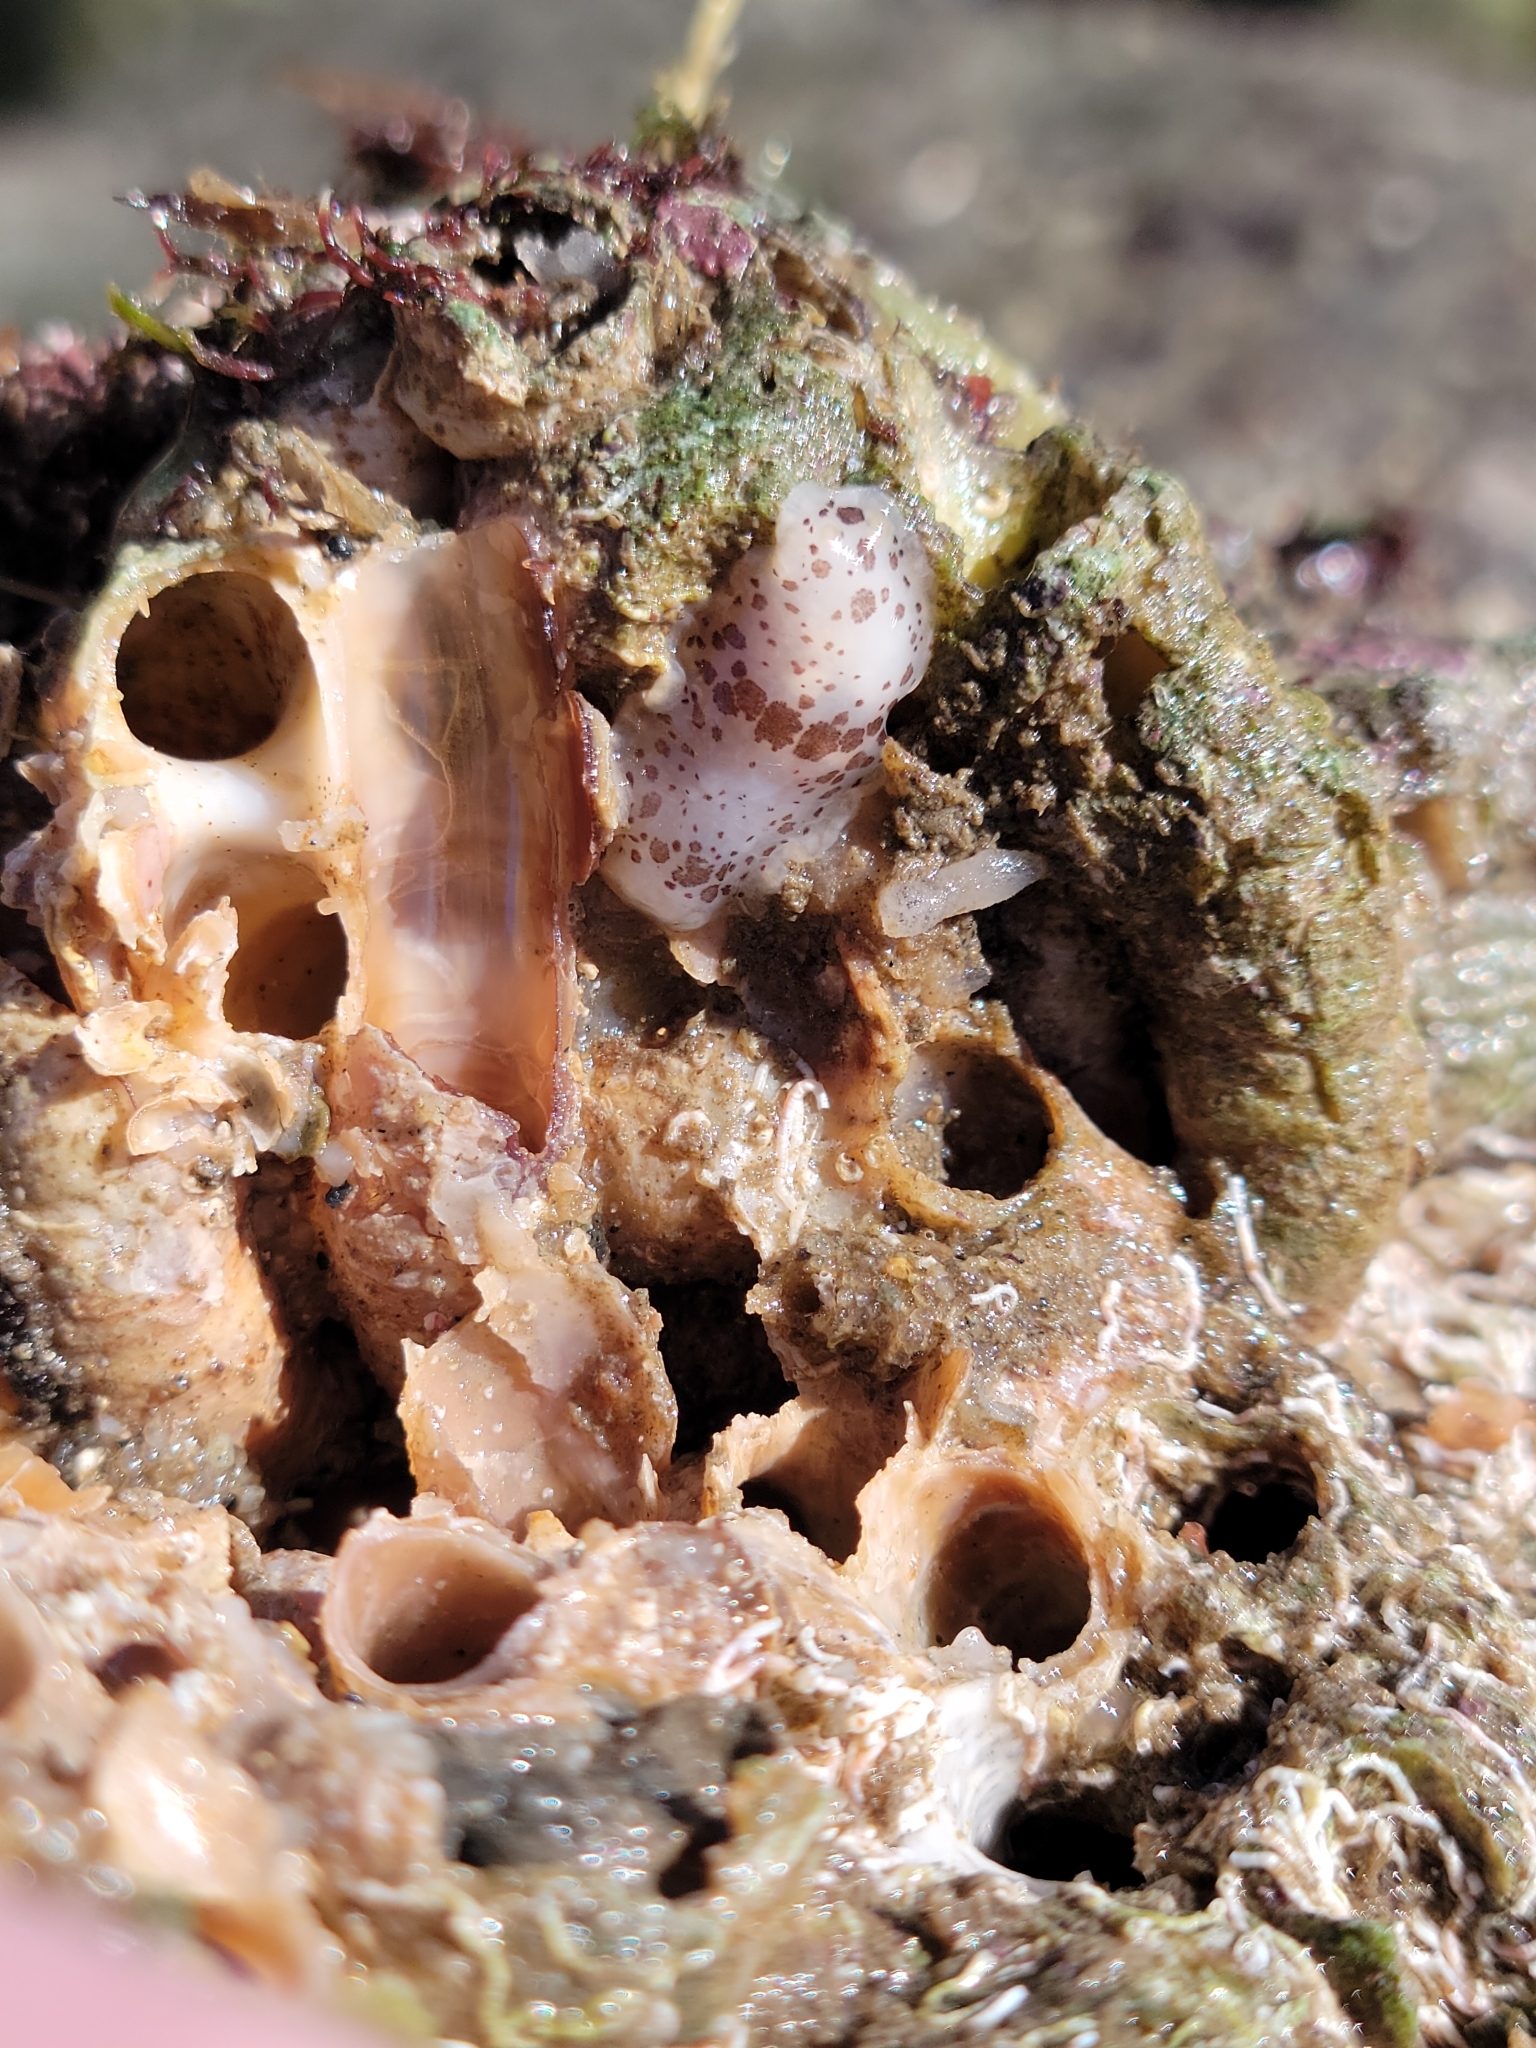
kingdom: Animalia
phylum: Mollusca
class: Gastropoda
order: Nudibranchia
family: Dendrodorididae
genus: Dendrodoris
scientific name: Dendrodoris nigromaculata
